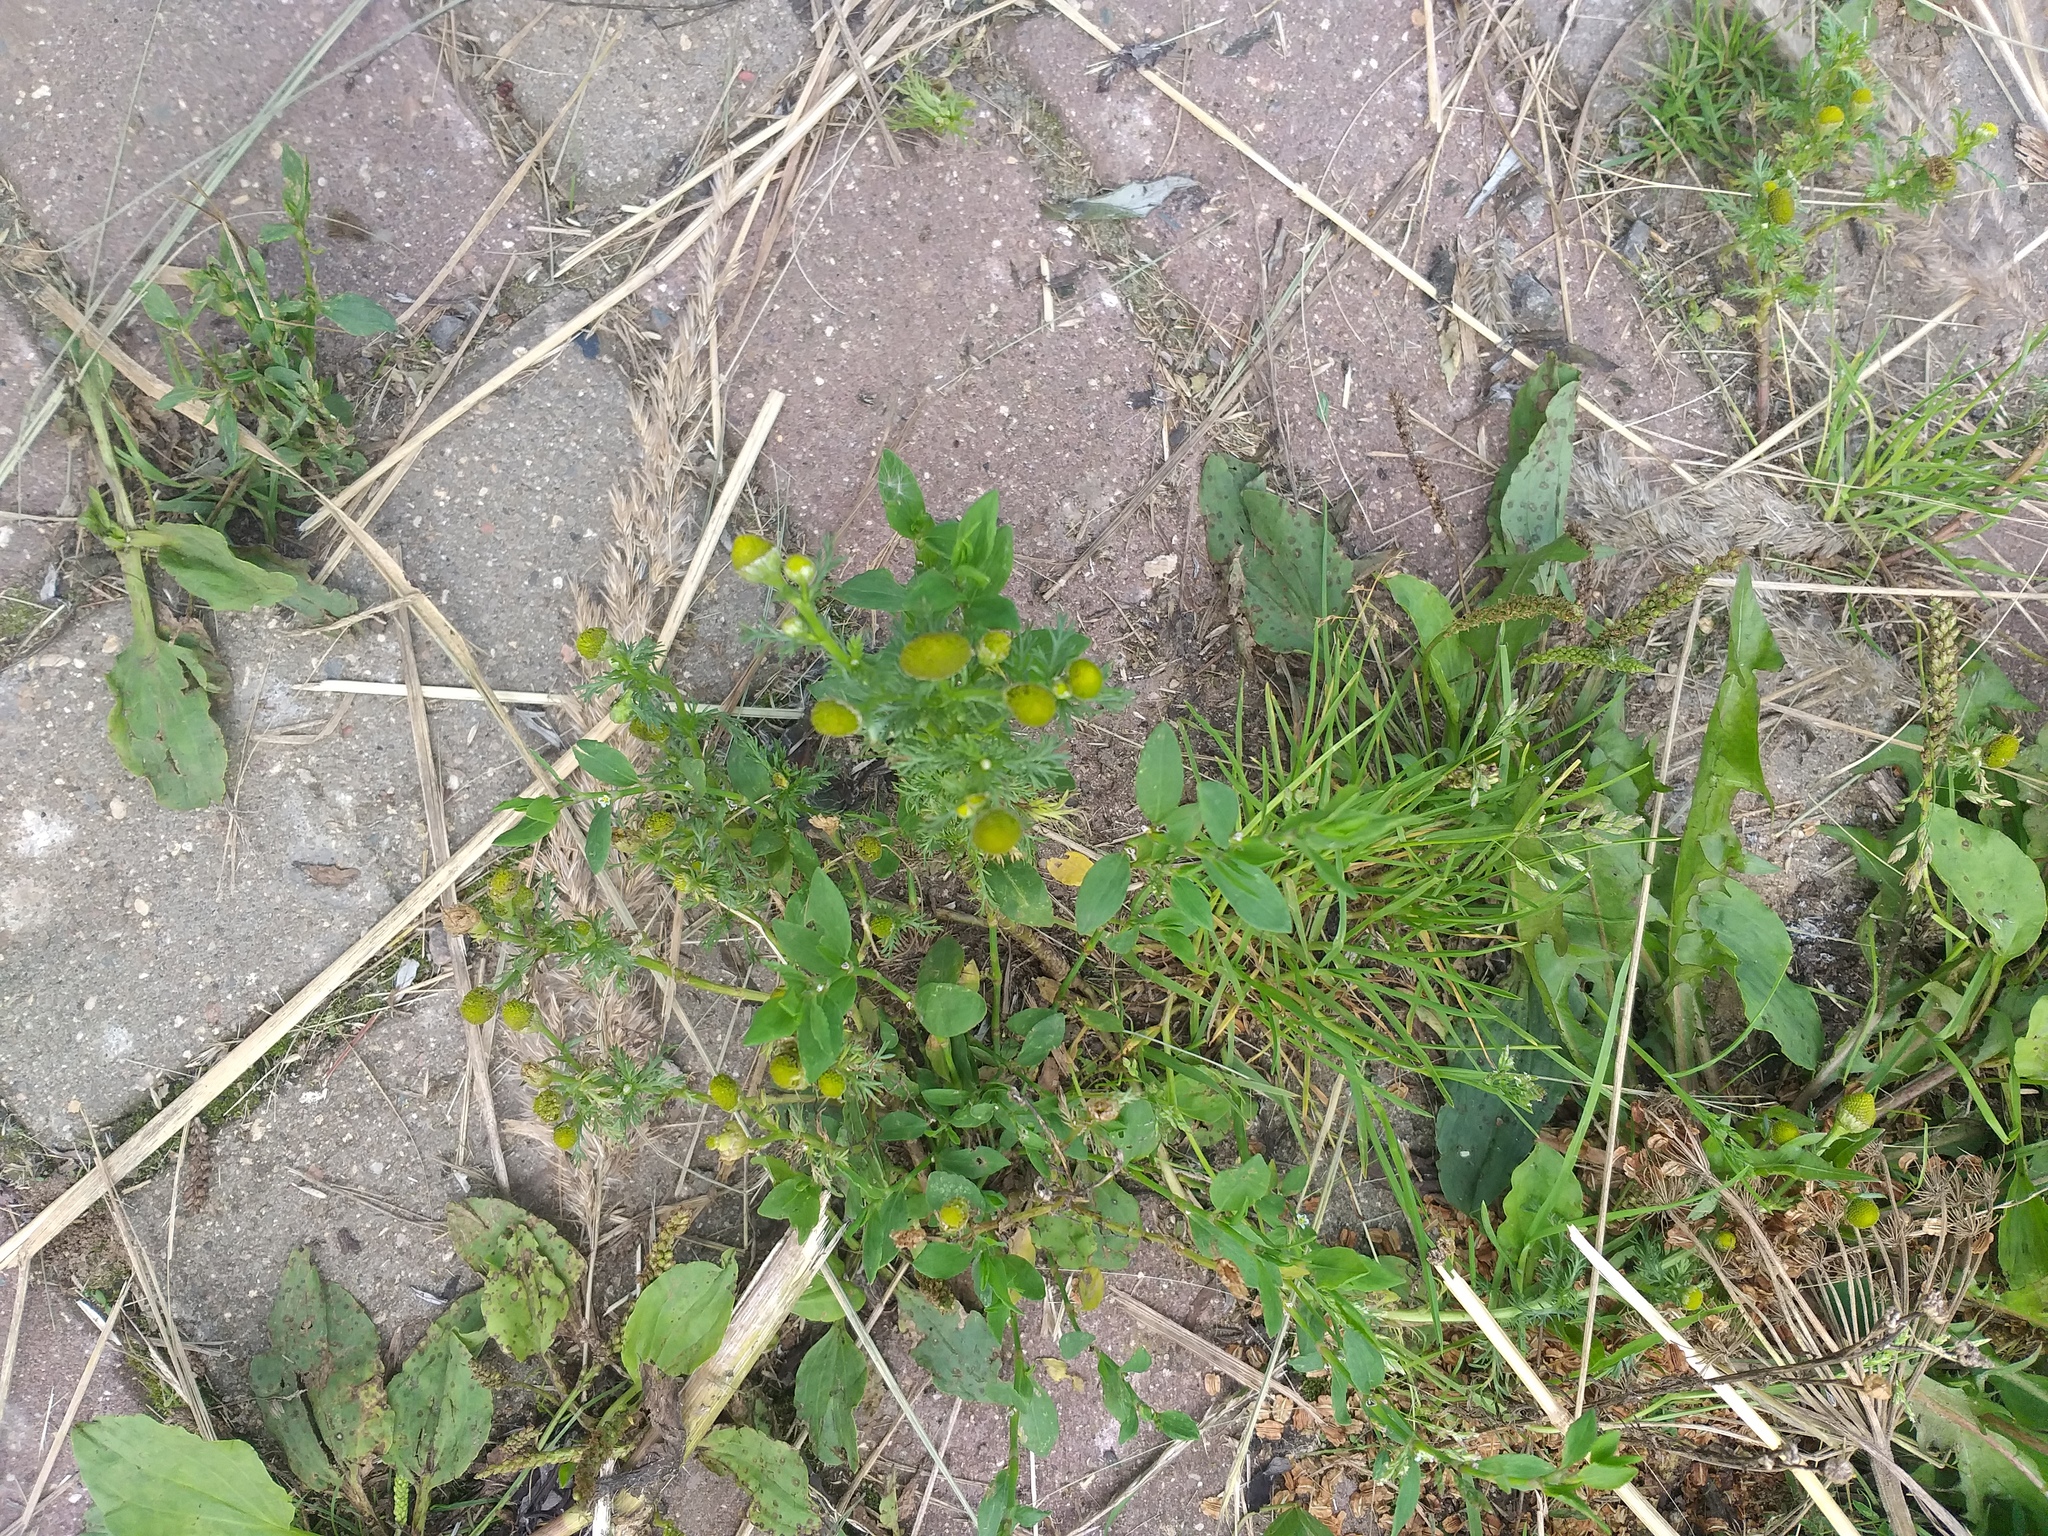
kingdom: Plantae
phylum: Tracheophyta
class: Magnoliopsida
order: Asterales
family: Asteraceae
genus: Matricaria
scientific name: Matricaria discoidea
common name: Disc mayweed
